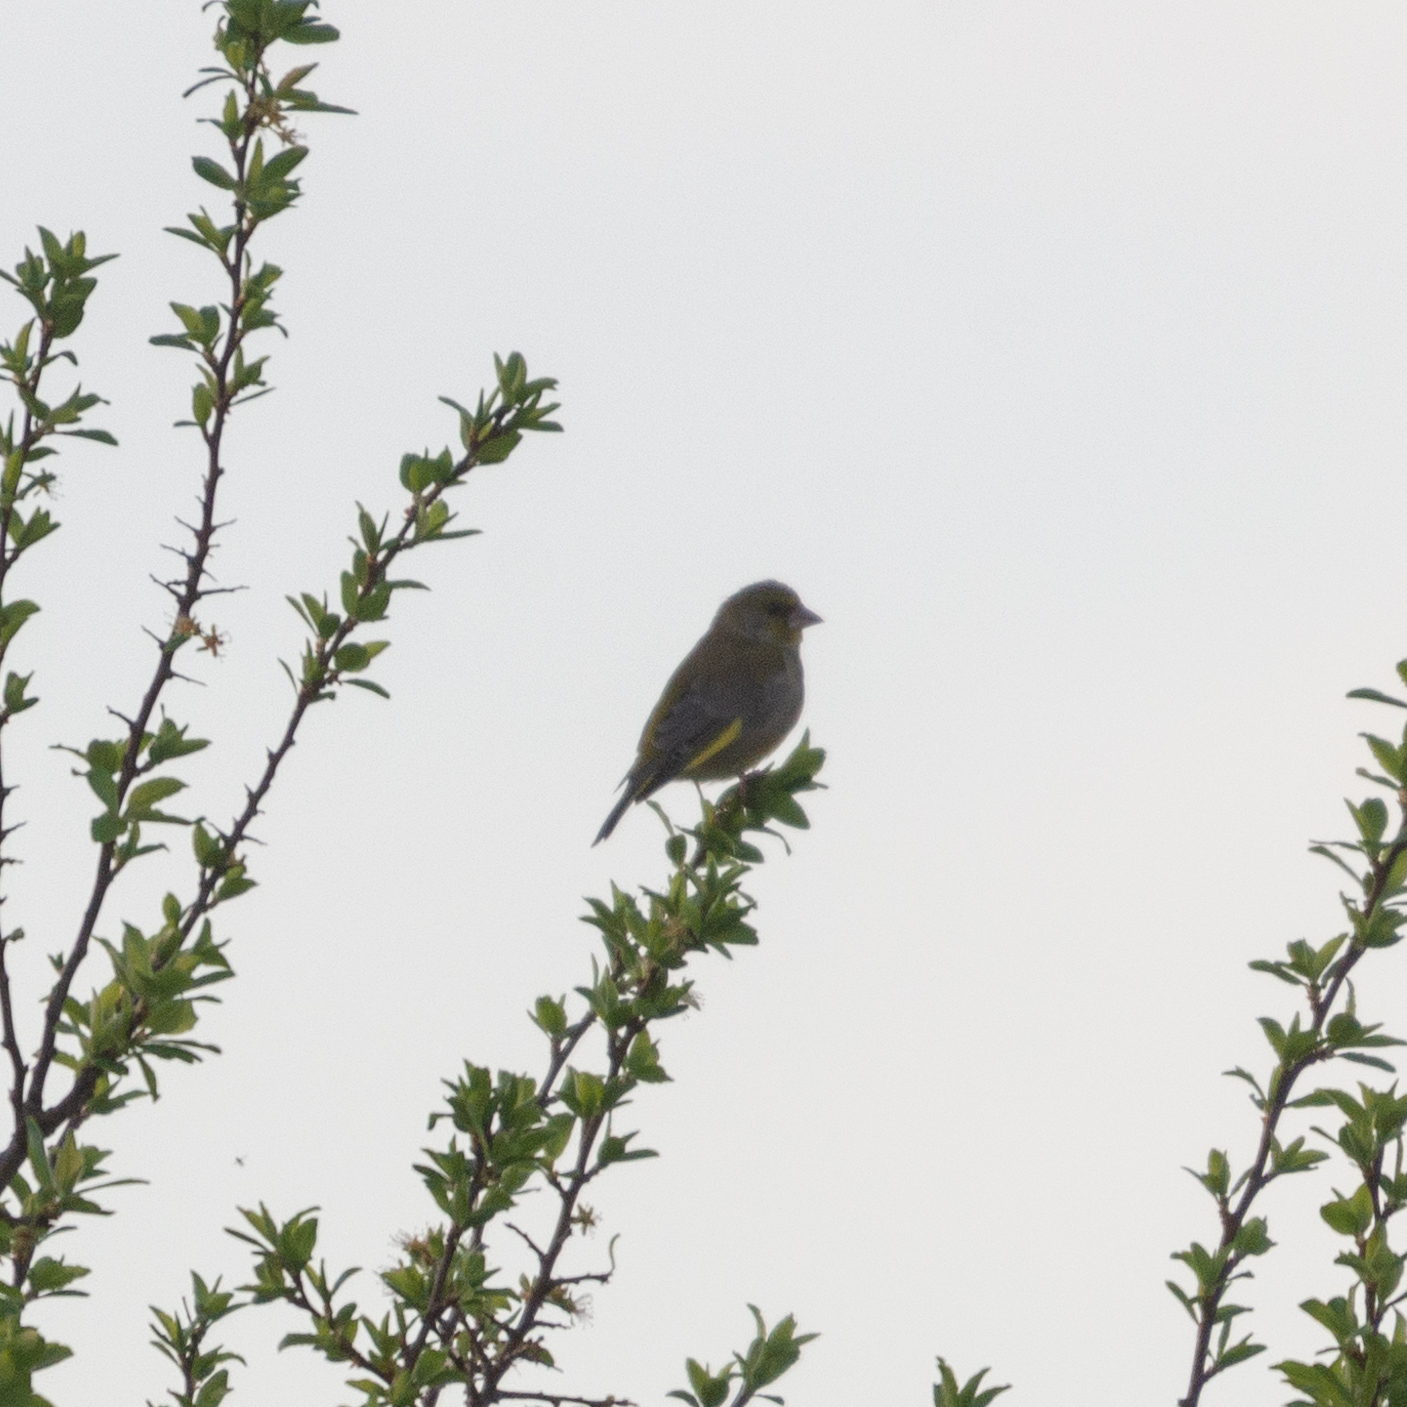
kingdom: Plantae
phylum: Tracheophyta
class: Liliopsida
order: Poales
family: Poaceae
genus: Chloris
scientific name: Chloris chloris
